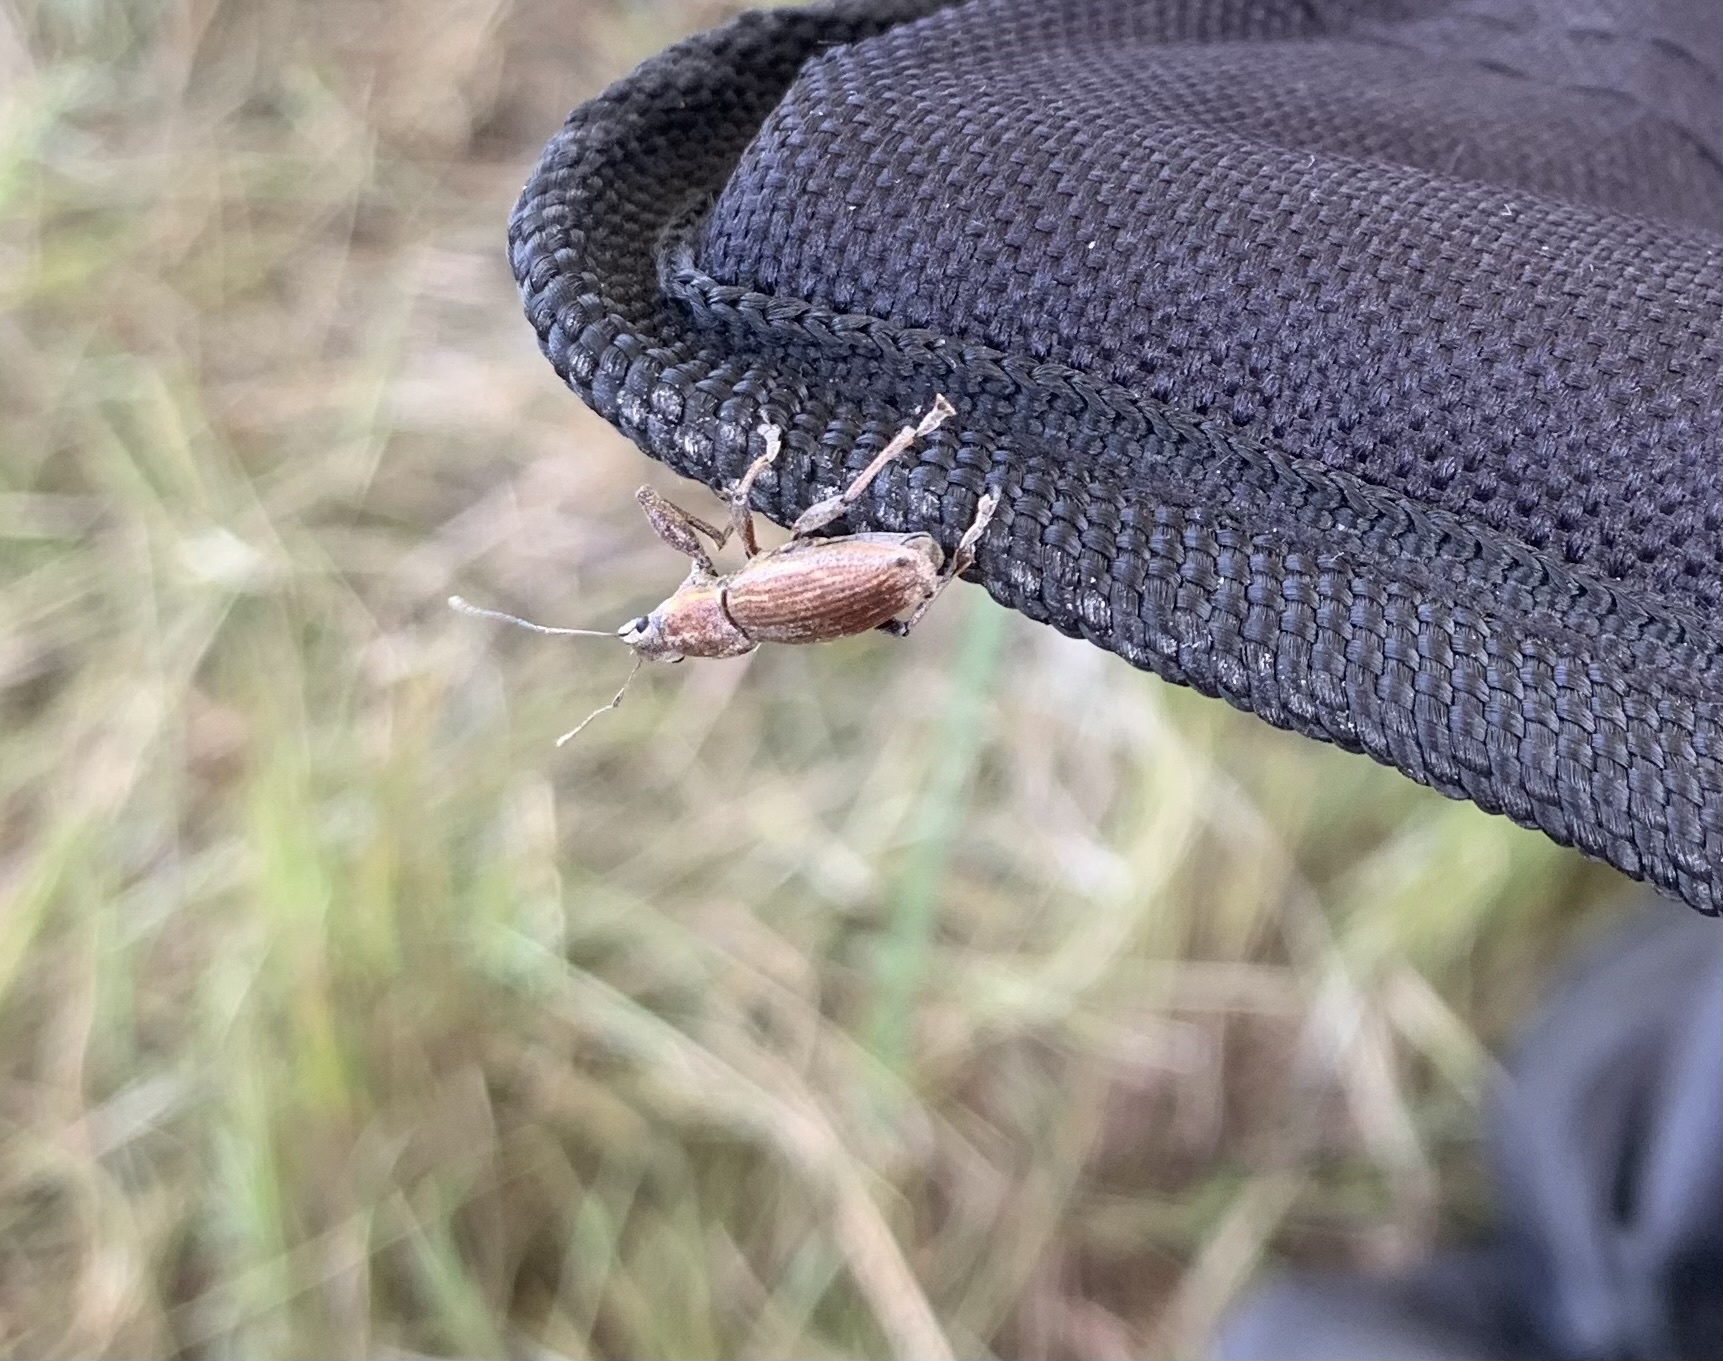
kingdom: Animalia
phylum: Arthropoda
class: Insecta
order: Coleoptera
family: Curculionidae
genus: Naupactus
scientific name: Naupactus xanthographus
